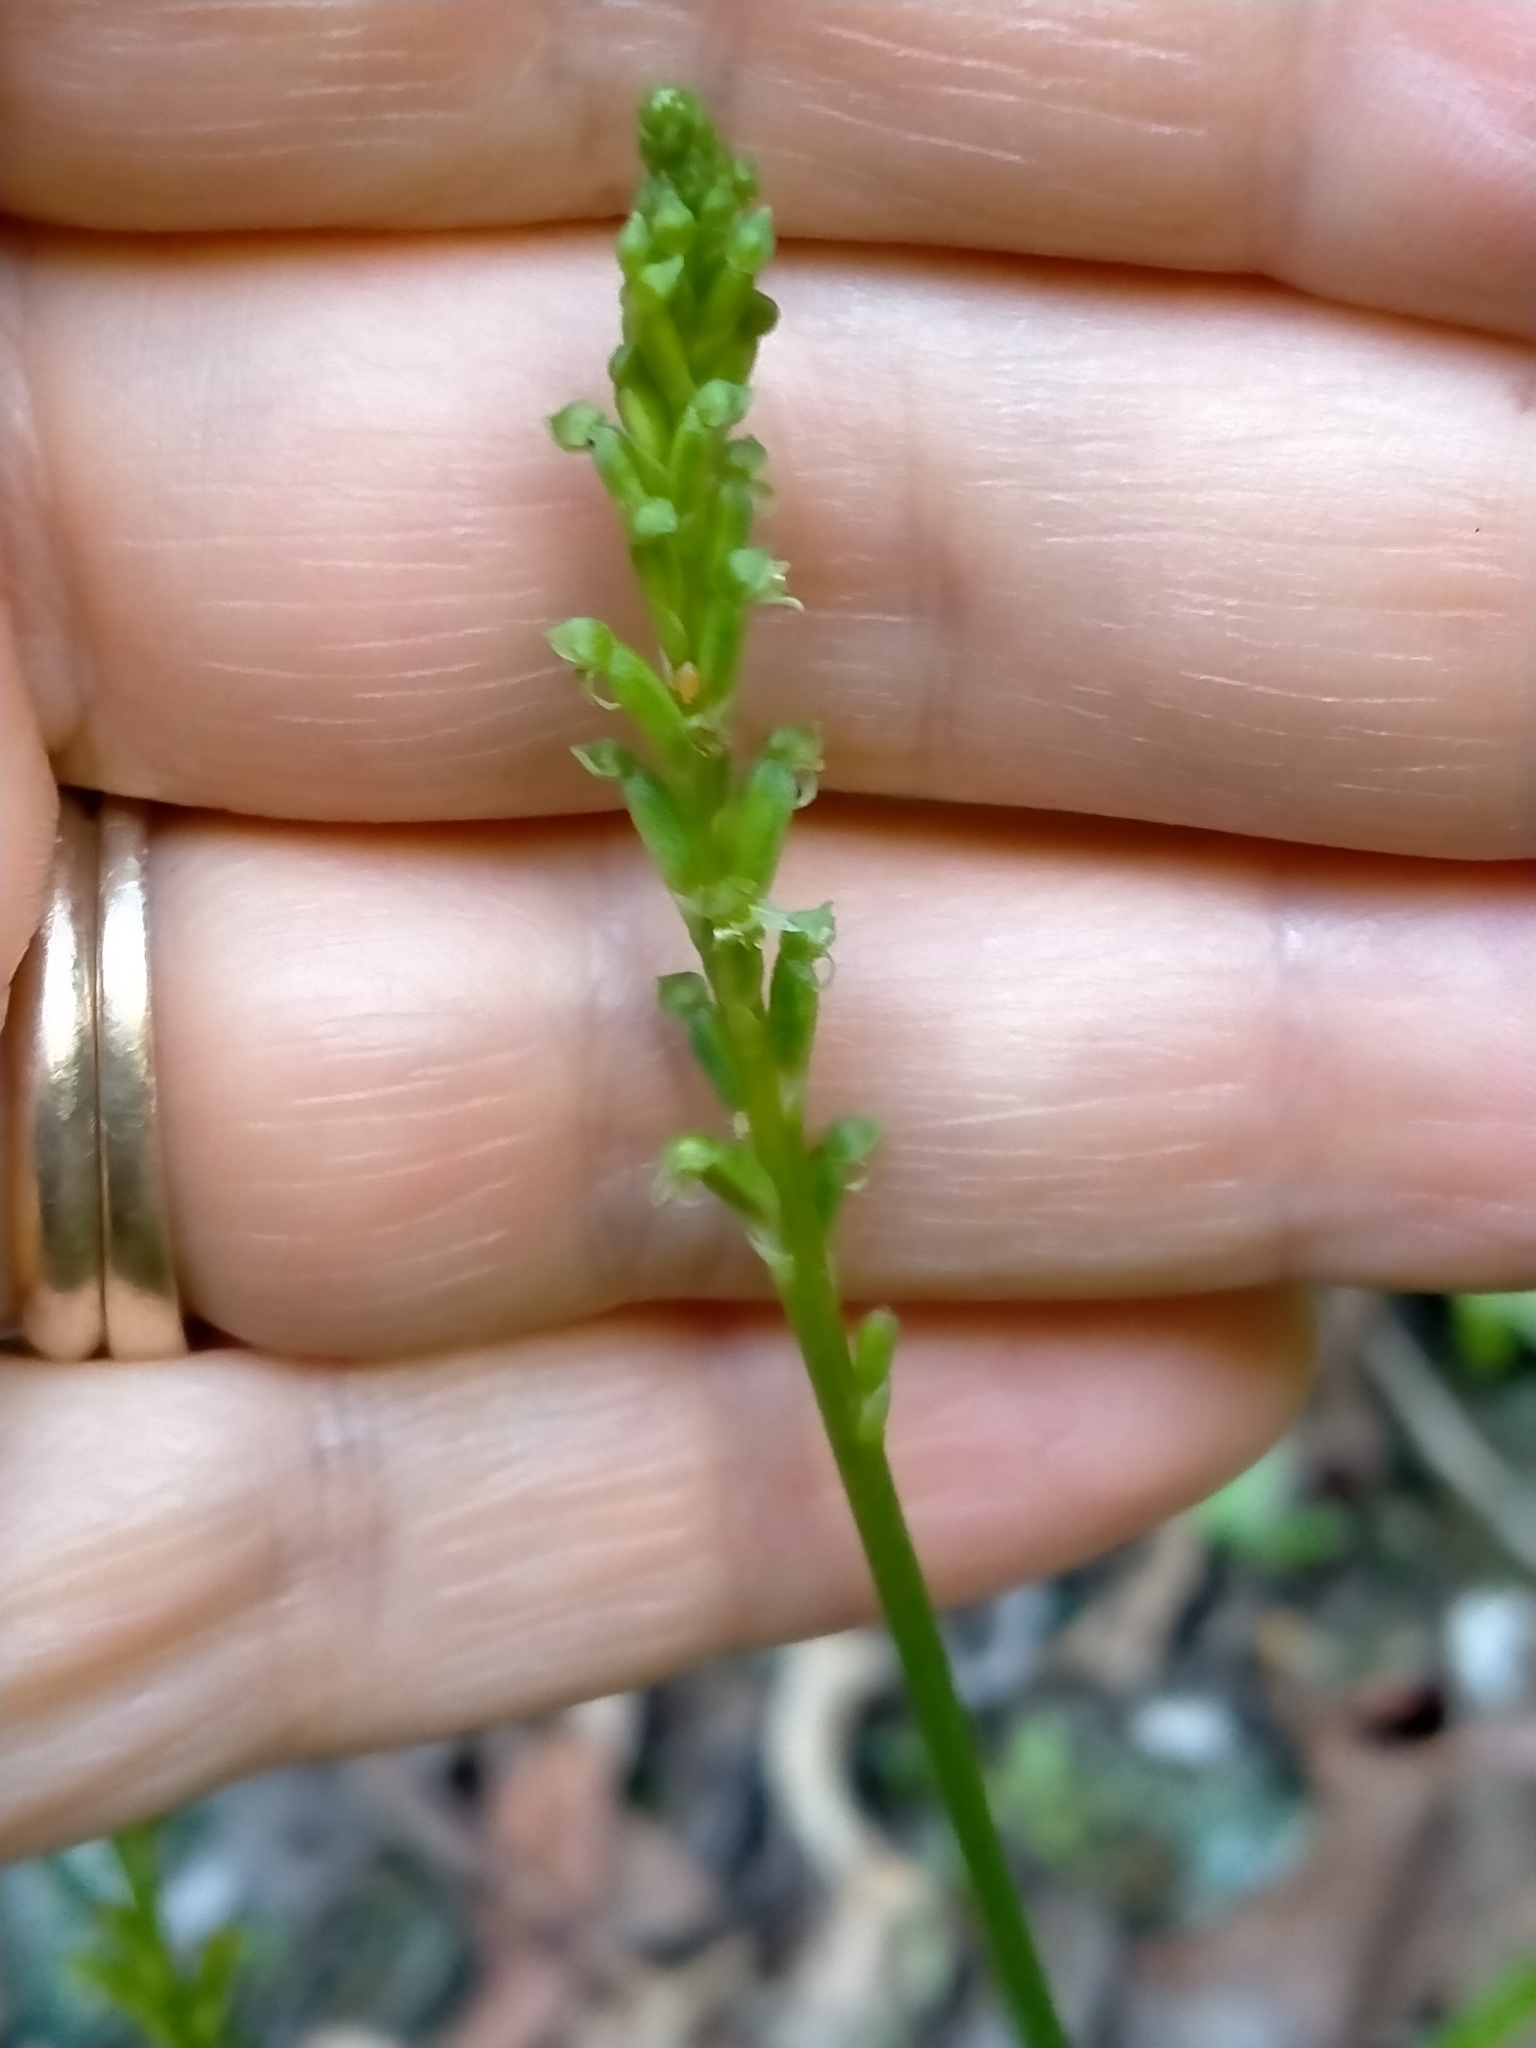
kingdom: Plantae
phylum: Tracheophyta
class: Liliopsida
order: Asparagales
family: Orchidaceae
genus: Microtis
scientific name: Microtis unifolia
